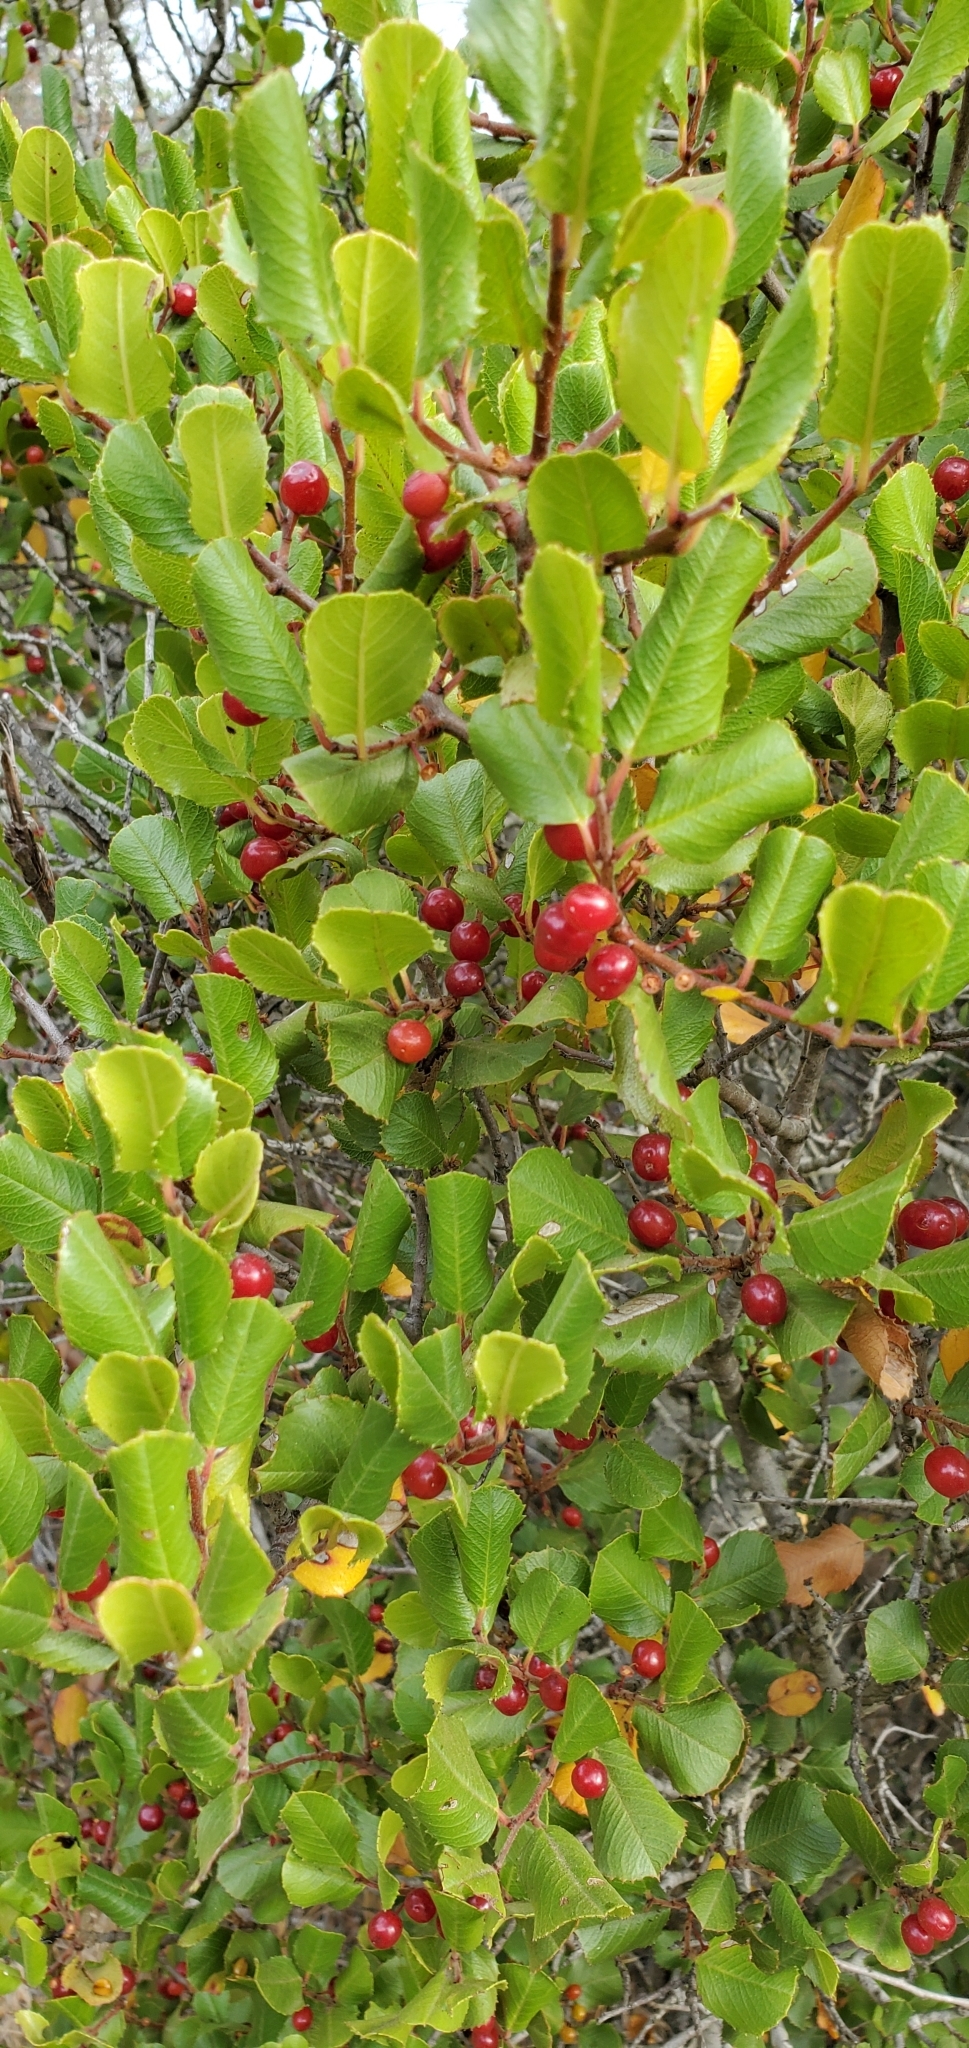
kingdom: Plantae
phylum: Tracheophyta
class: Magnoliopsida
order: Rosales
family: Rhamnaceae
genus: Endotropis
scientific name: Endotropis crocea
